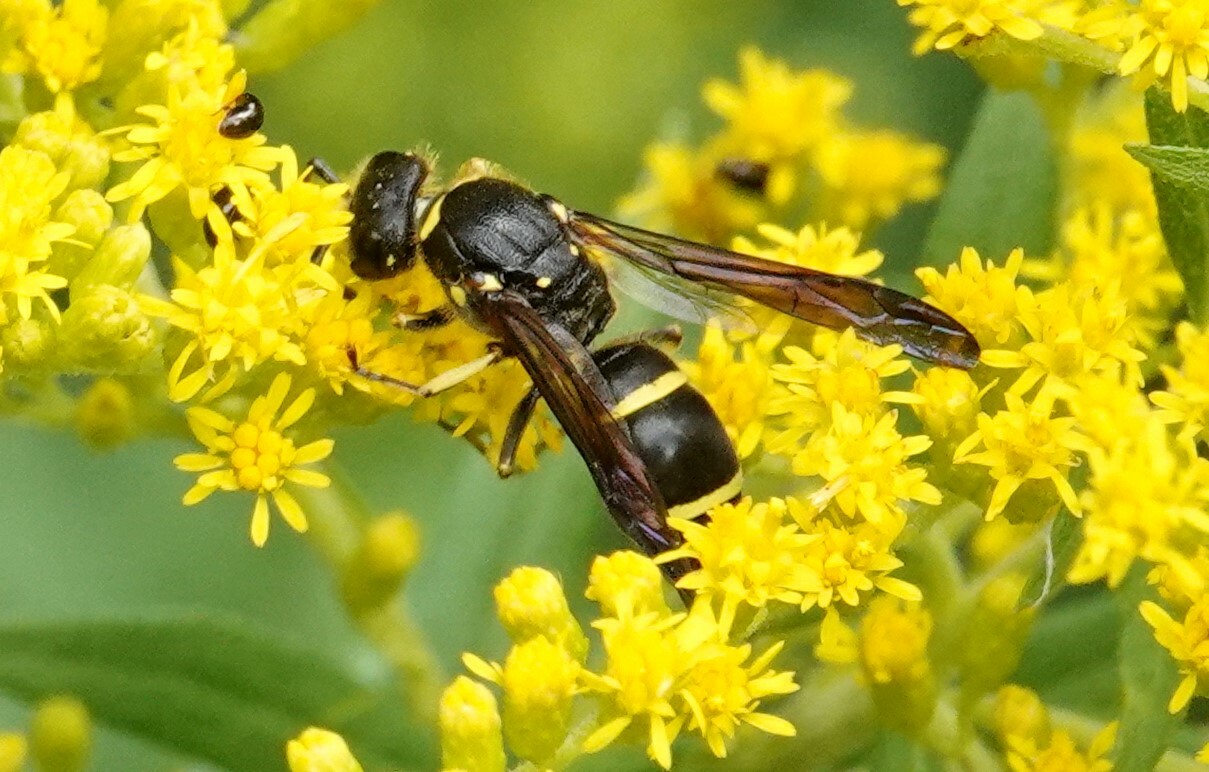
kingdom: Animalia
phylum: Arthropoda
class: Insecta
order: Hymenoptera
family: Vespidae
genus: Ancistrocerus
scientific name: Ancistrocerus
